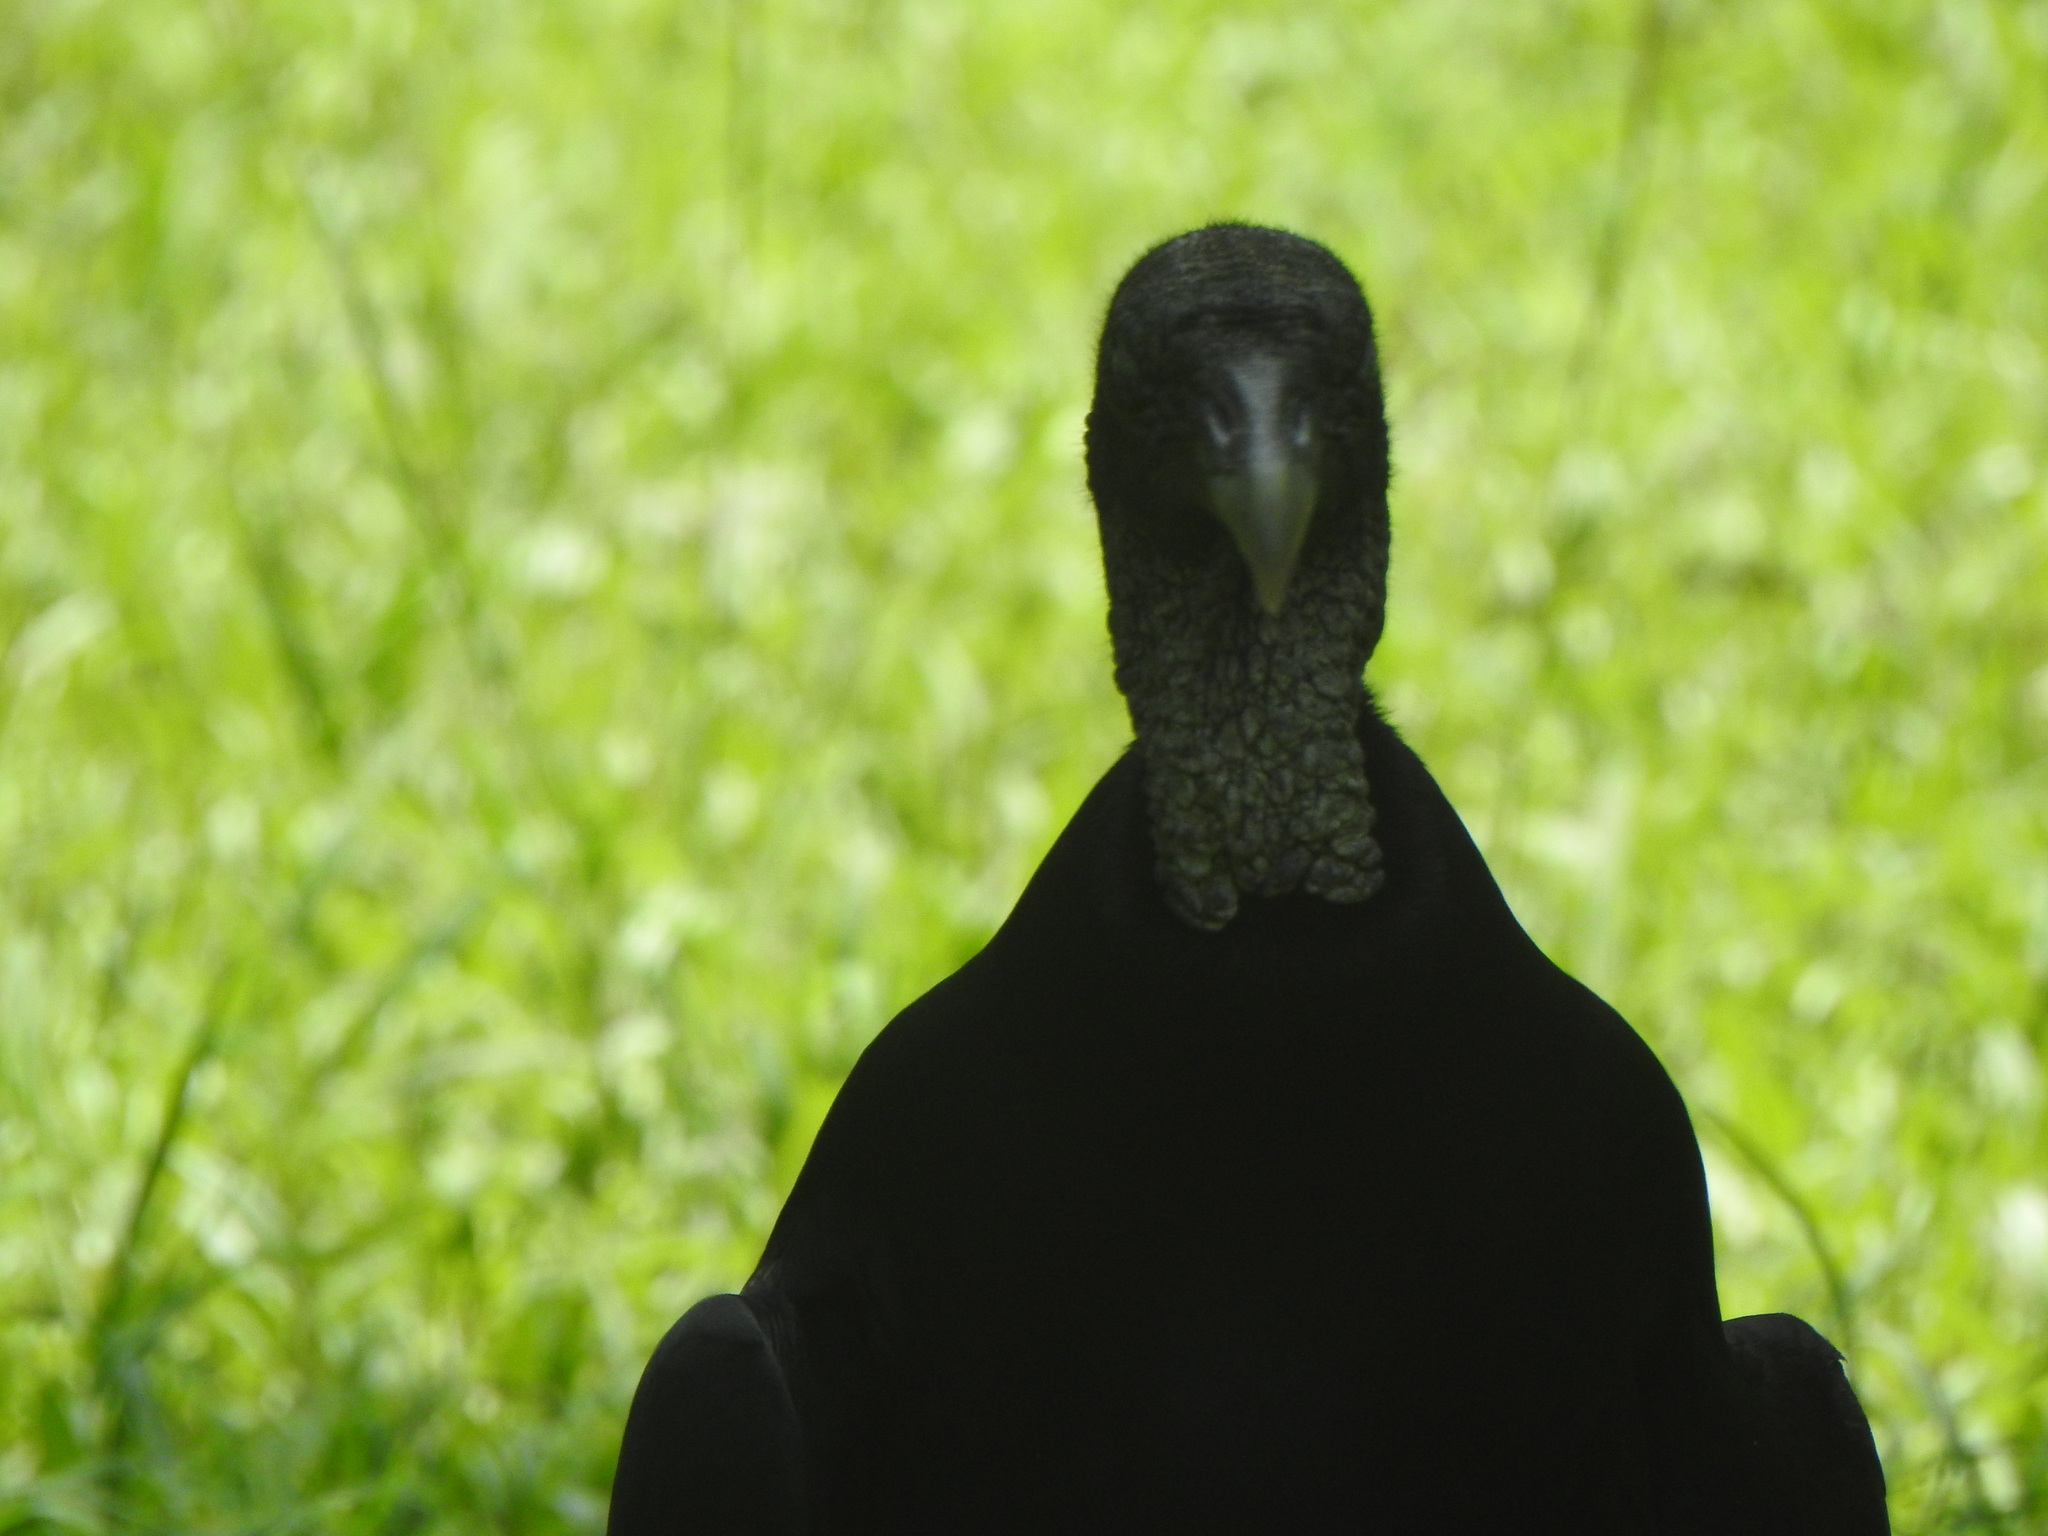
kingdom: Animalia
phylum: Chordata
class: Aves
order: Accipitriformes
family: Cathartidae
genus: Coragyps
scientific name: Coragyps atratus
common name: Black vulture
